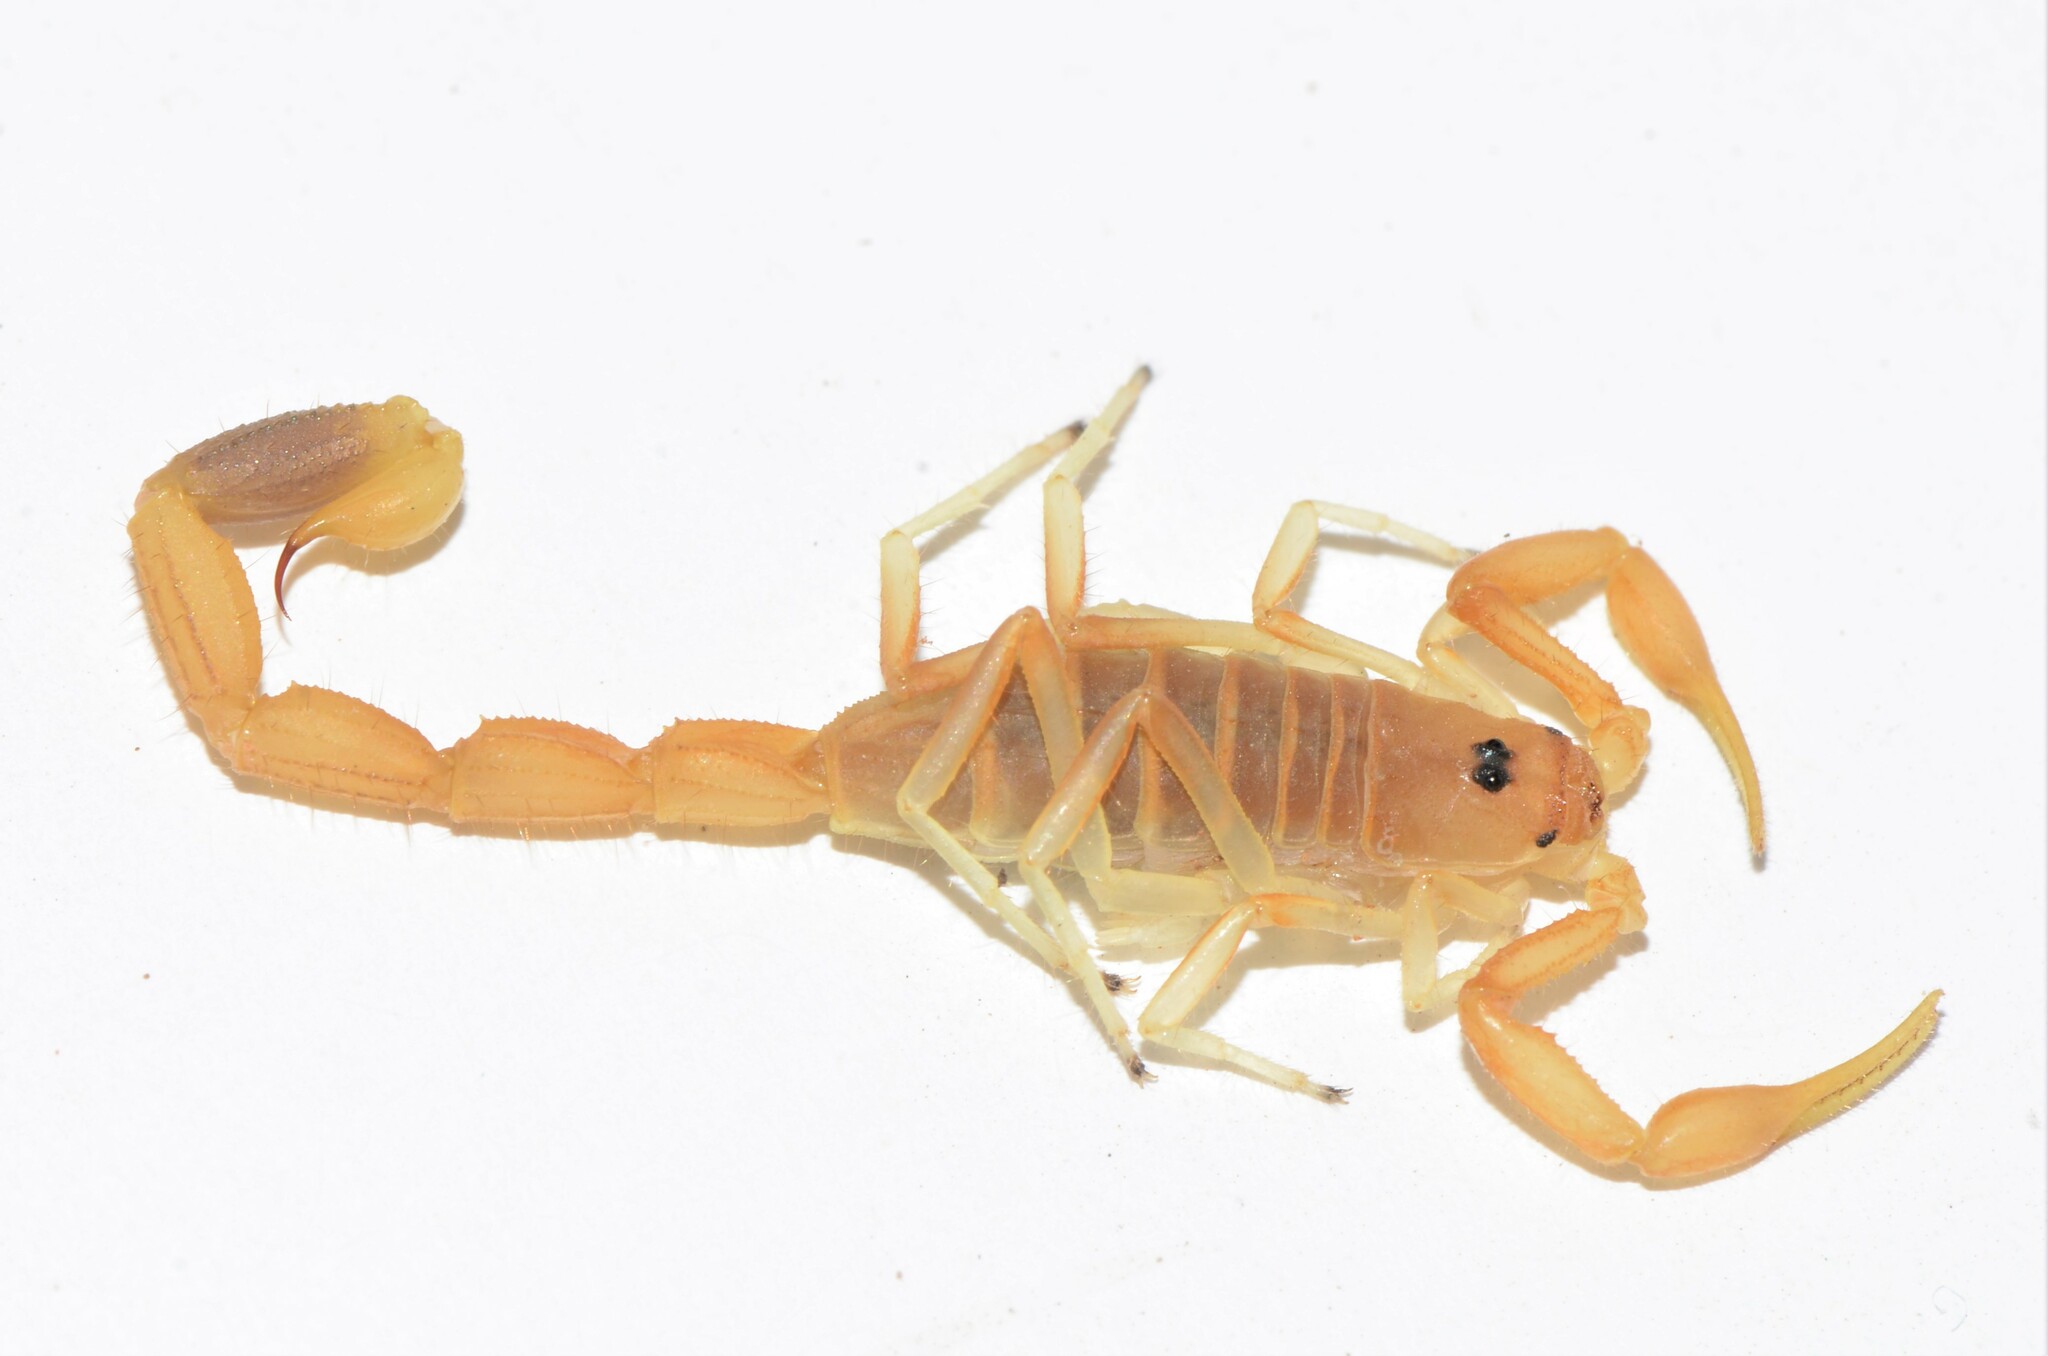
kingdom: Animalia
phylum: Arthropoda
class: Arachnida
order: Scorpiones
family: Buthidae
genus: Uroplectes
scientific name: Uroplectes gracilior
